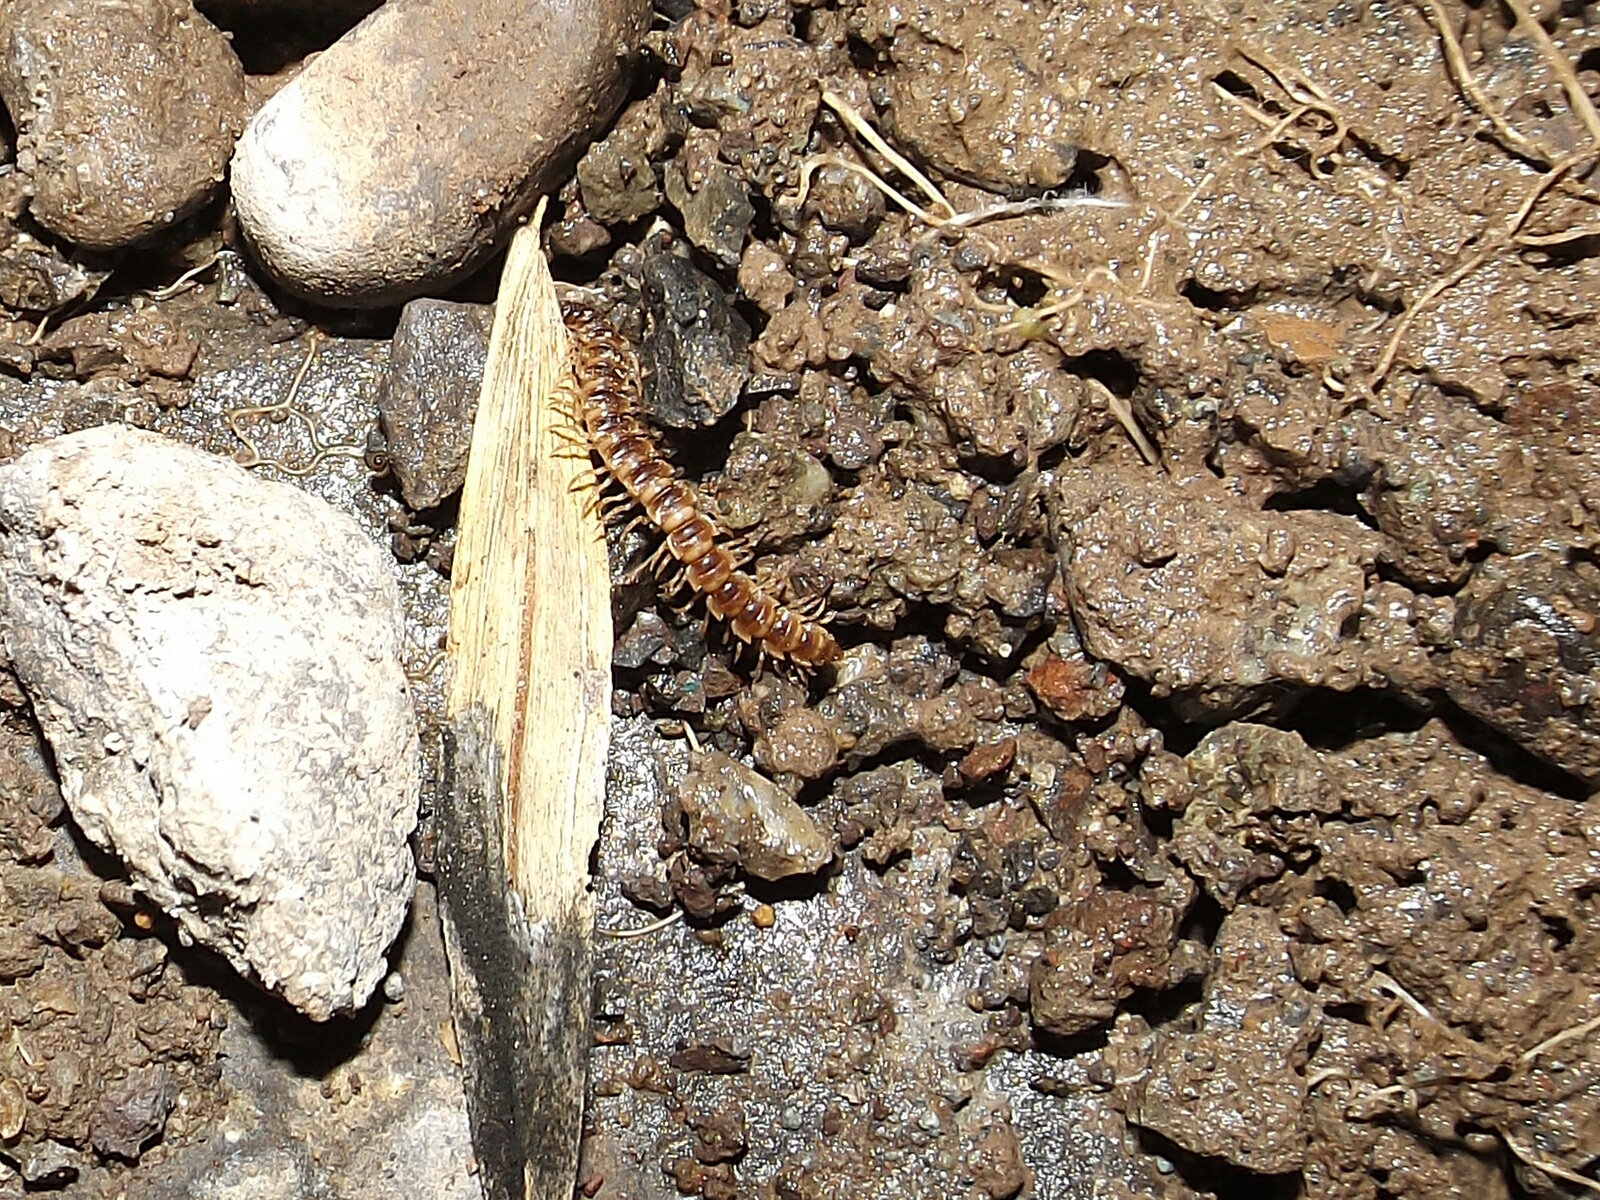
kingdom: Animalia
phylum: Arthropoda
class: Diplopoda
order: Polydesmida
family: Paradoxosomatidae
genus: Oxidus
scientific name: Oxidus gracilis
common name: Greenhouse millipede
